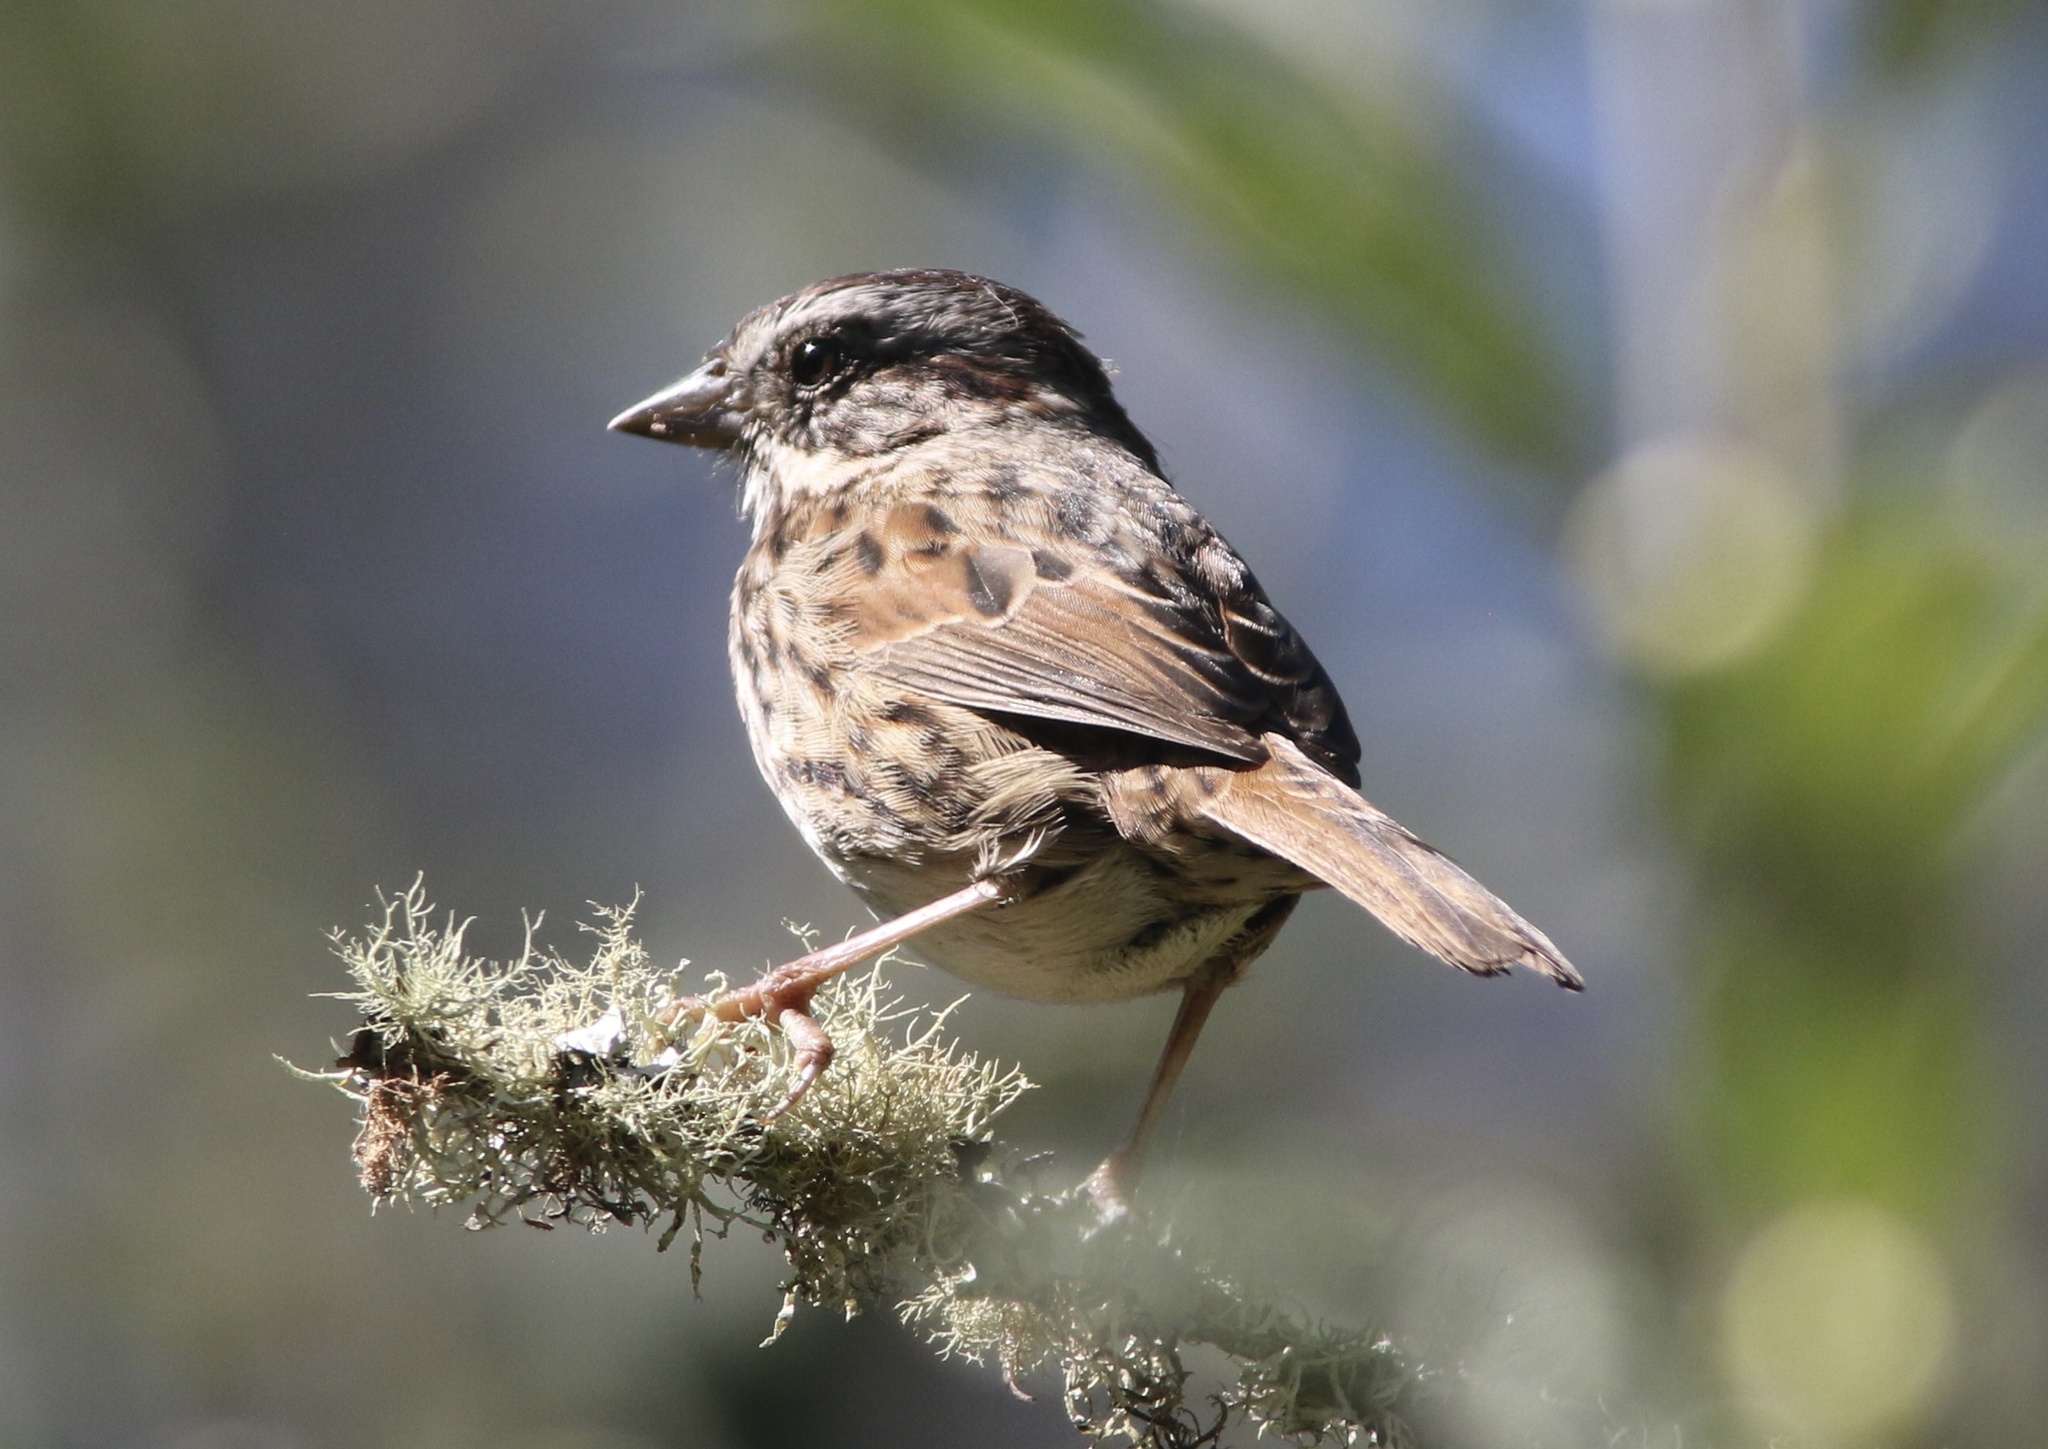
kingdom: Animalia
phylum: Chordata
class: Aves
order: Passeriformes
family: Passerellidae
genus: Melospiza
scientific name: Melospiza melodia
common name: Song sparrow
